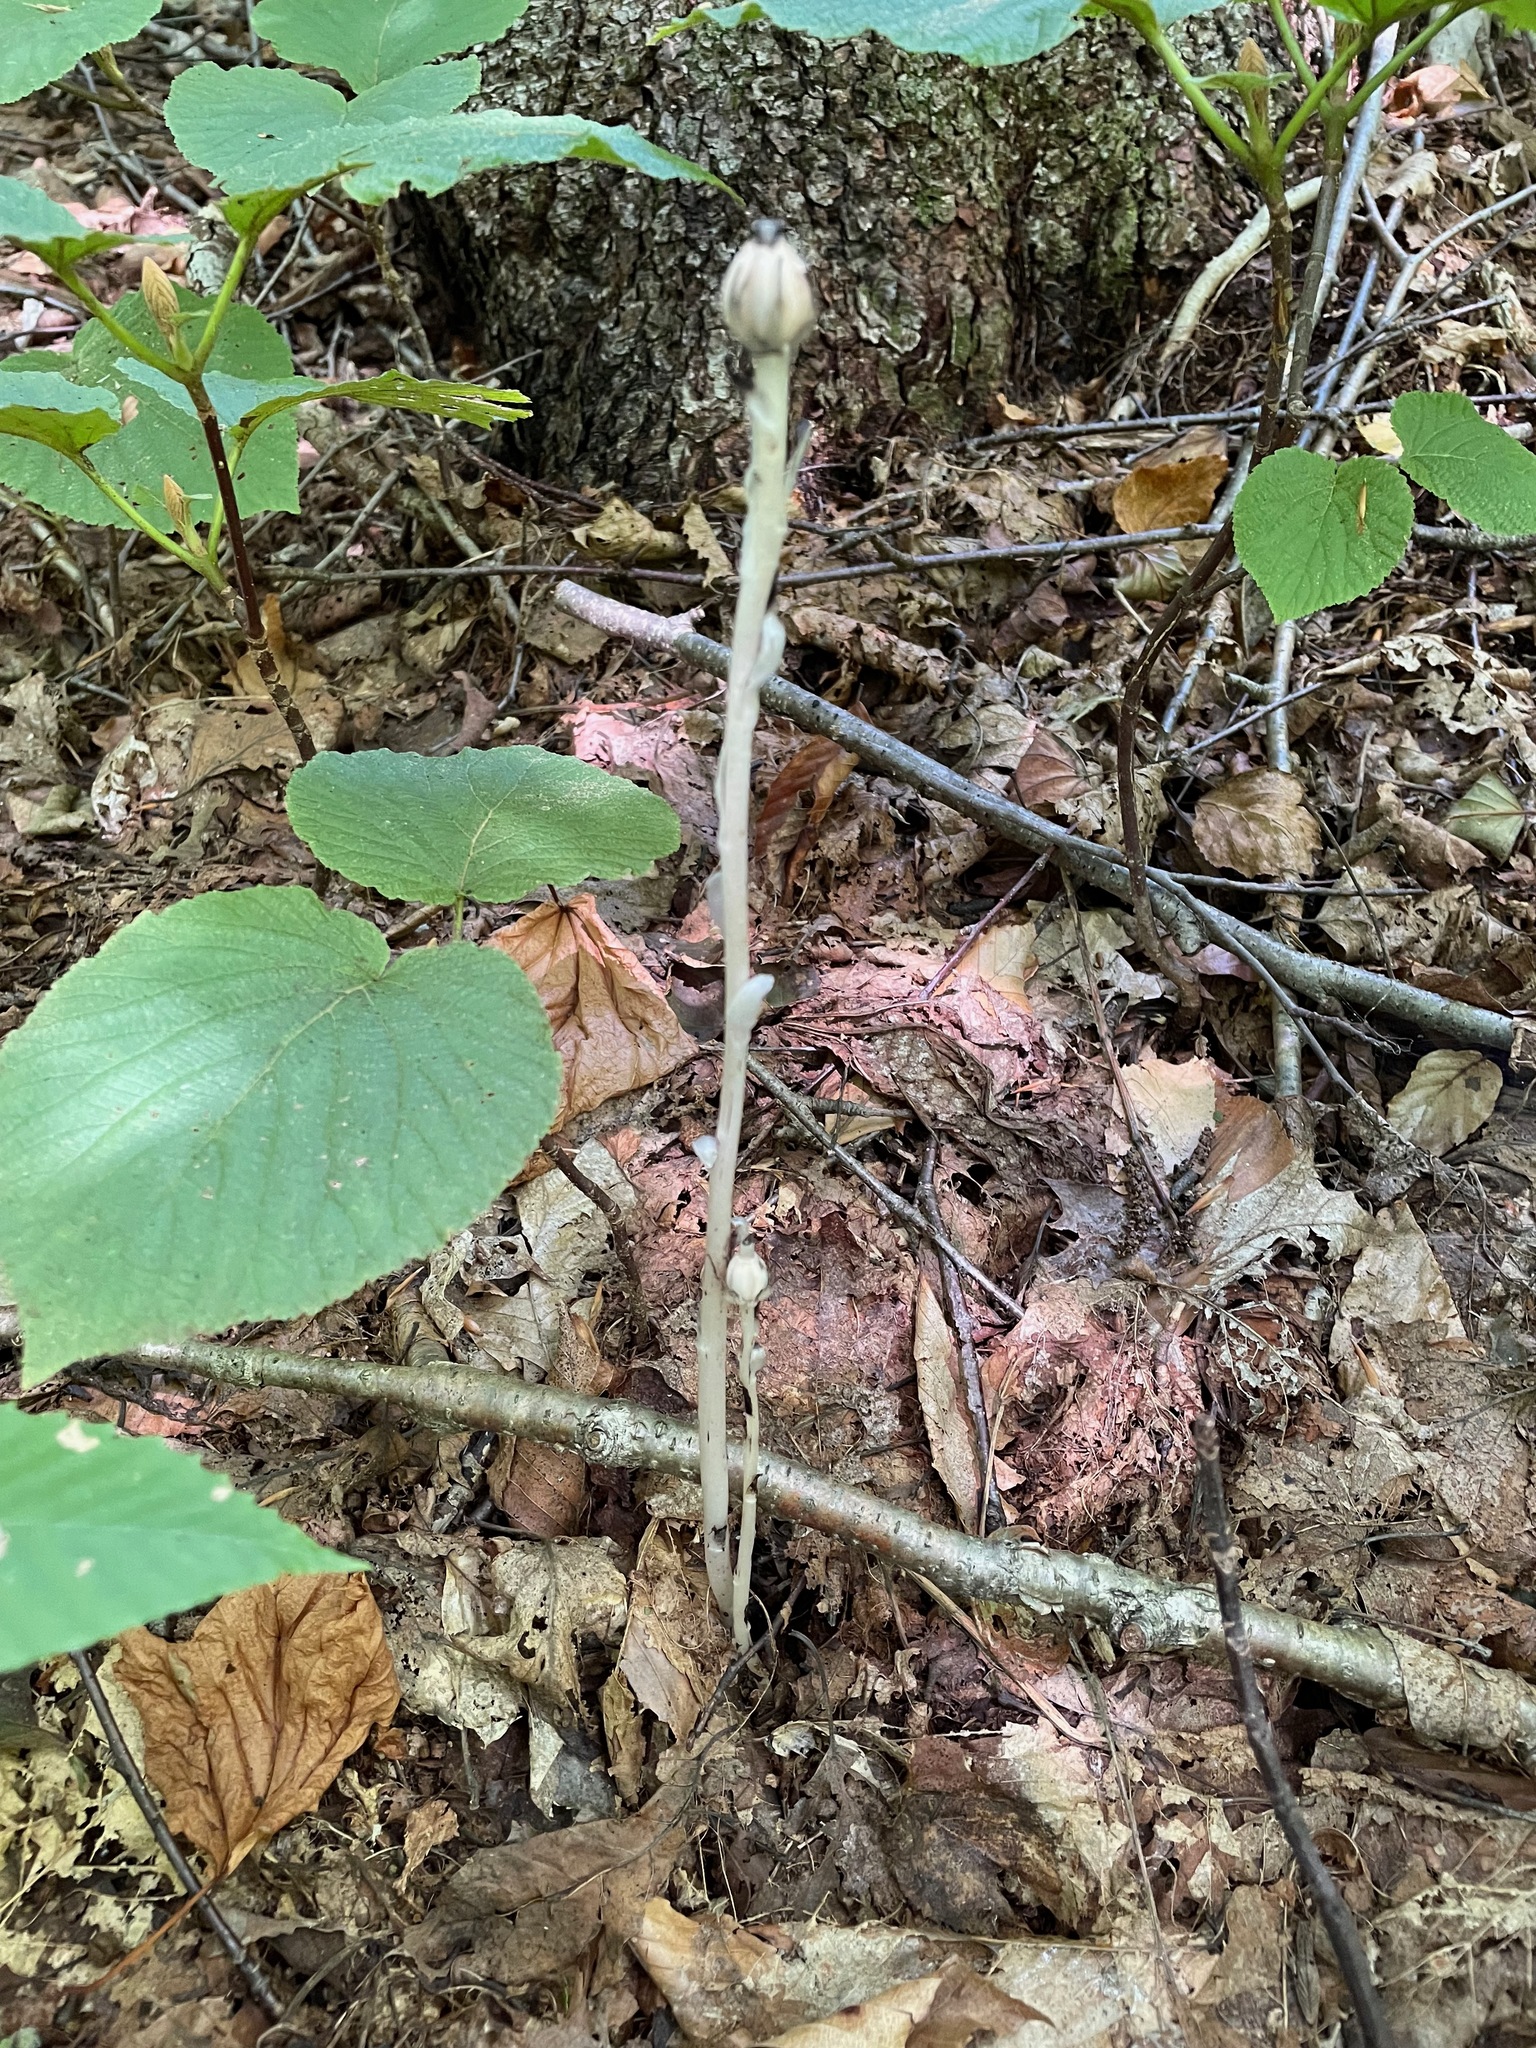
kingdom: Plantae
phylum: Tracheophyta
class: Magnoliopsida
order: Ericales
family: Ericaceae
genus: Monotropa
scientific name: Monotropa uniflora
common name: Convulsion root
